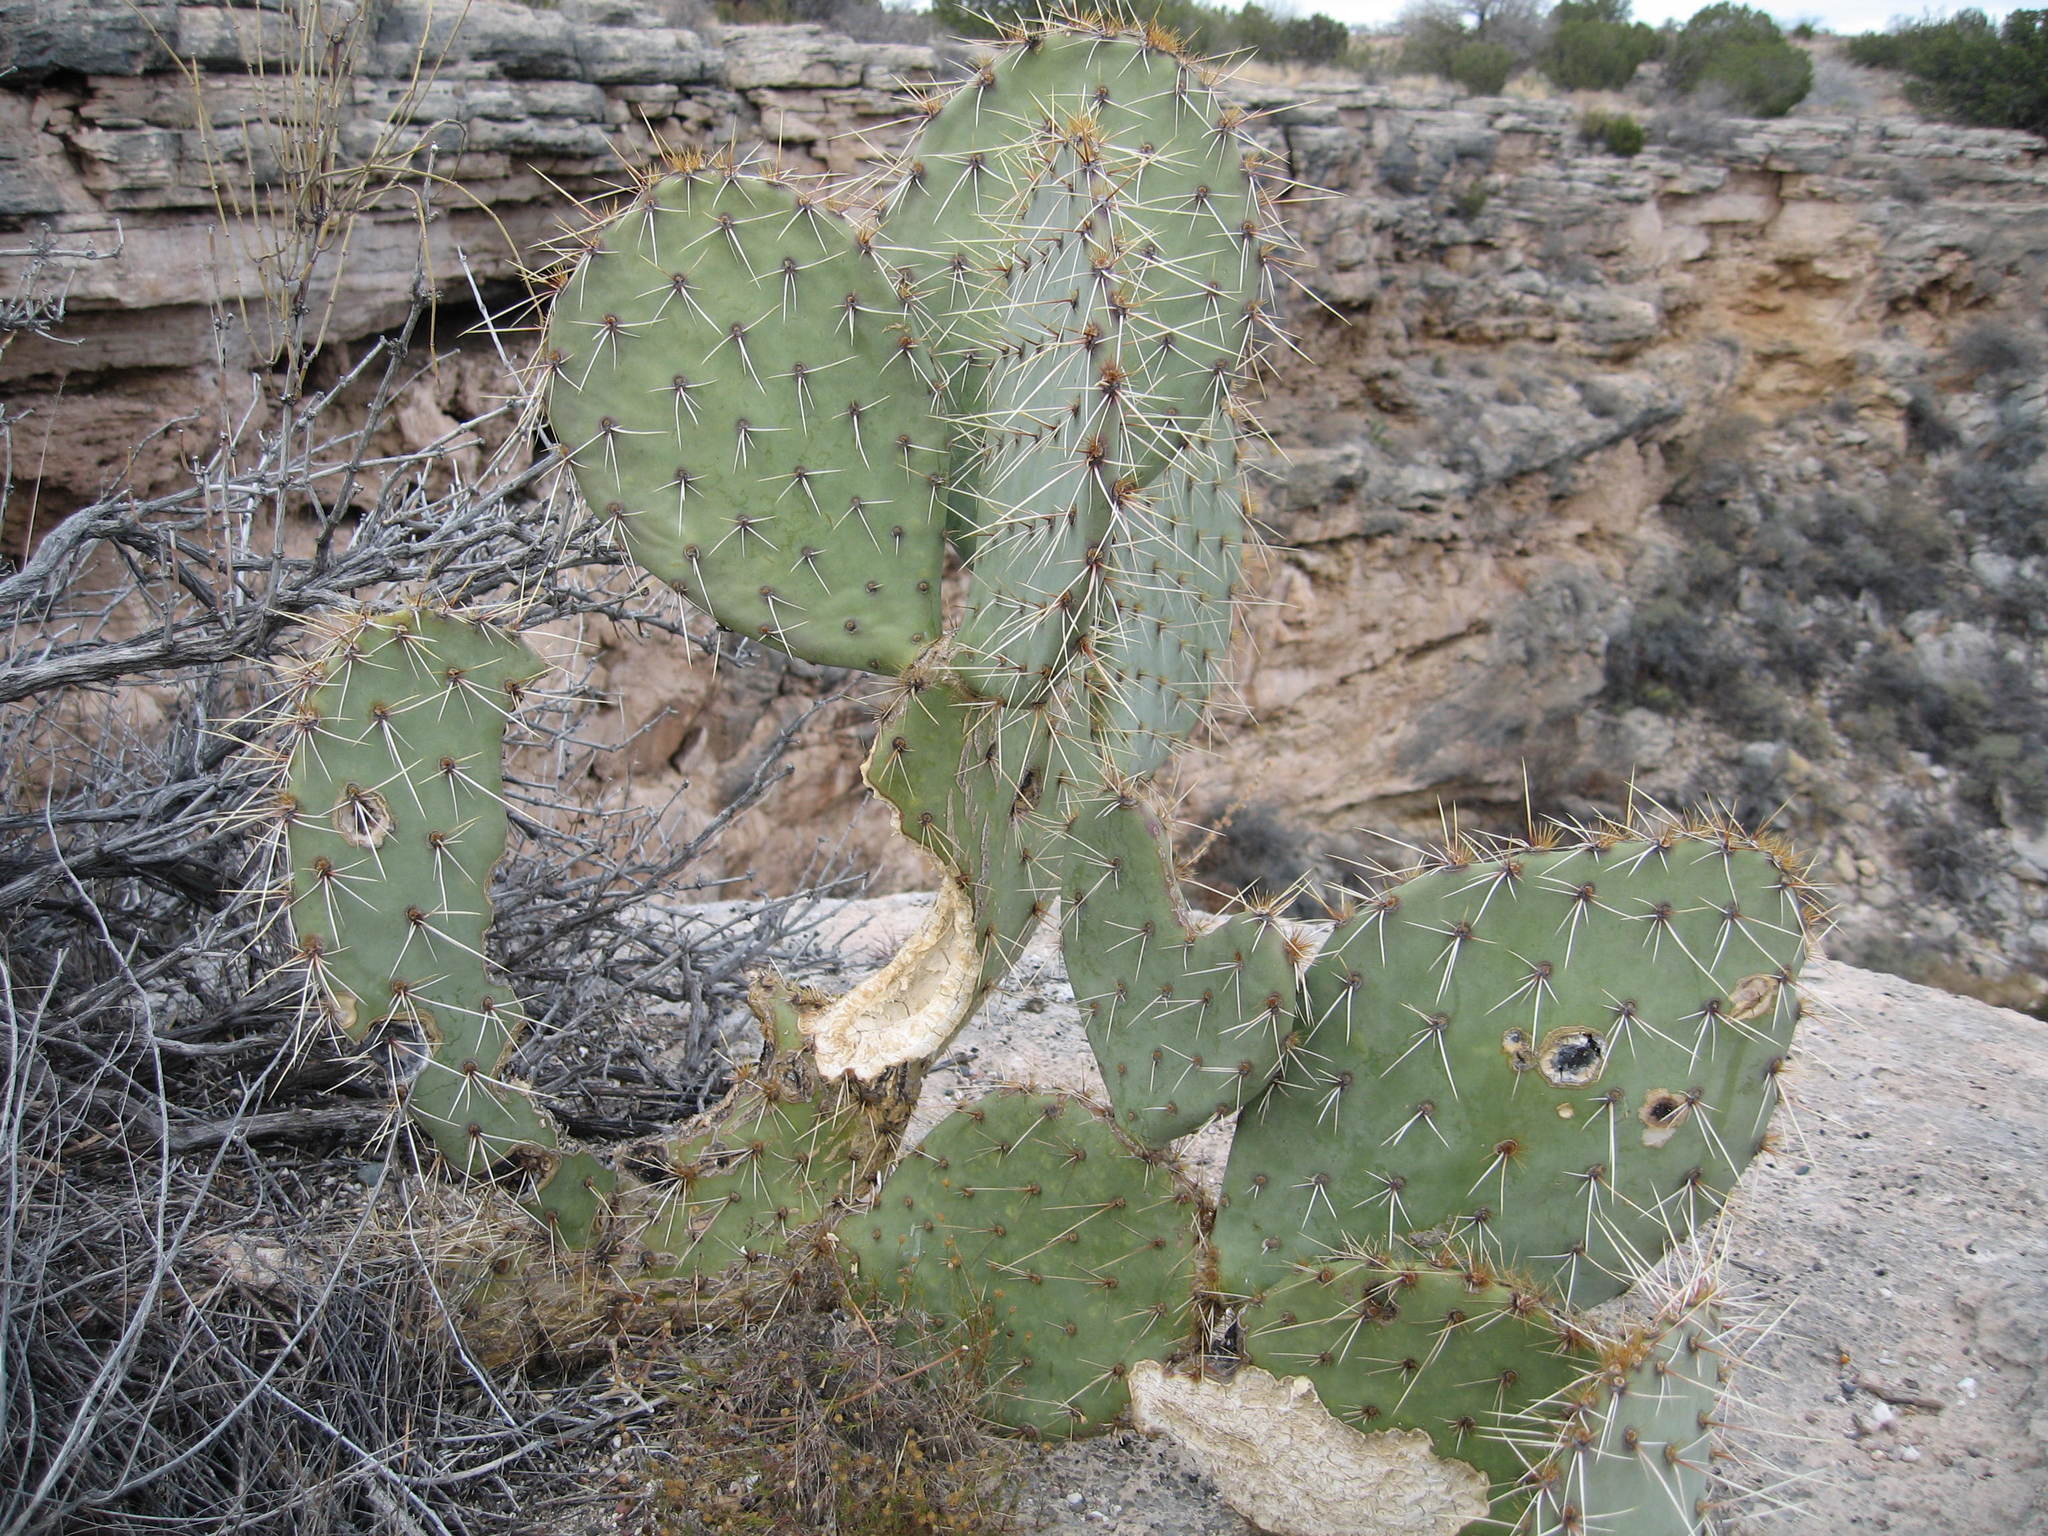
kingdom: Plantae
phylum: Tracheophyta
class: Magnoliopsida
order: Caryophyllales
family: Cactaceae
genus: Opuntia
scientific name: Opuntia engelmannii
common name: Cactus-apple
